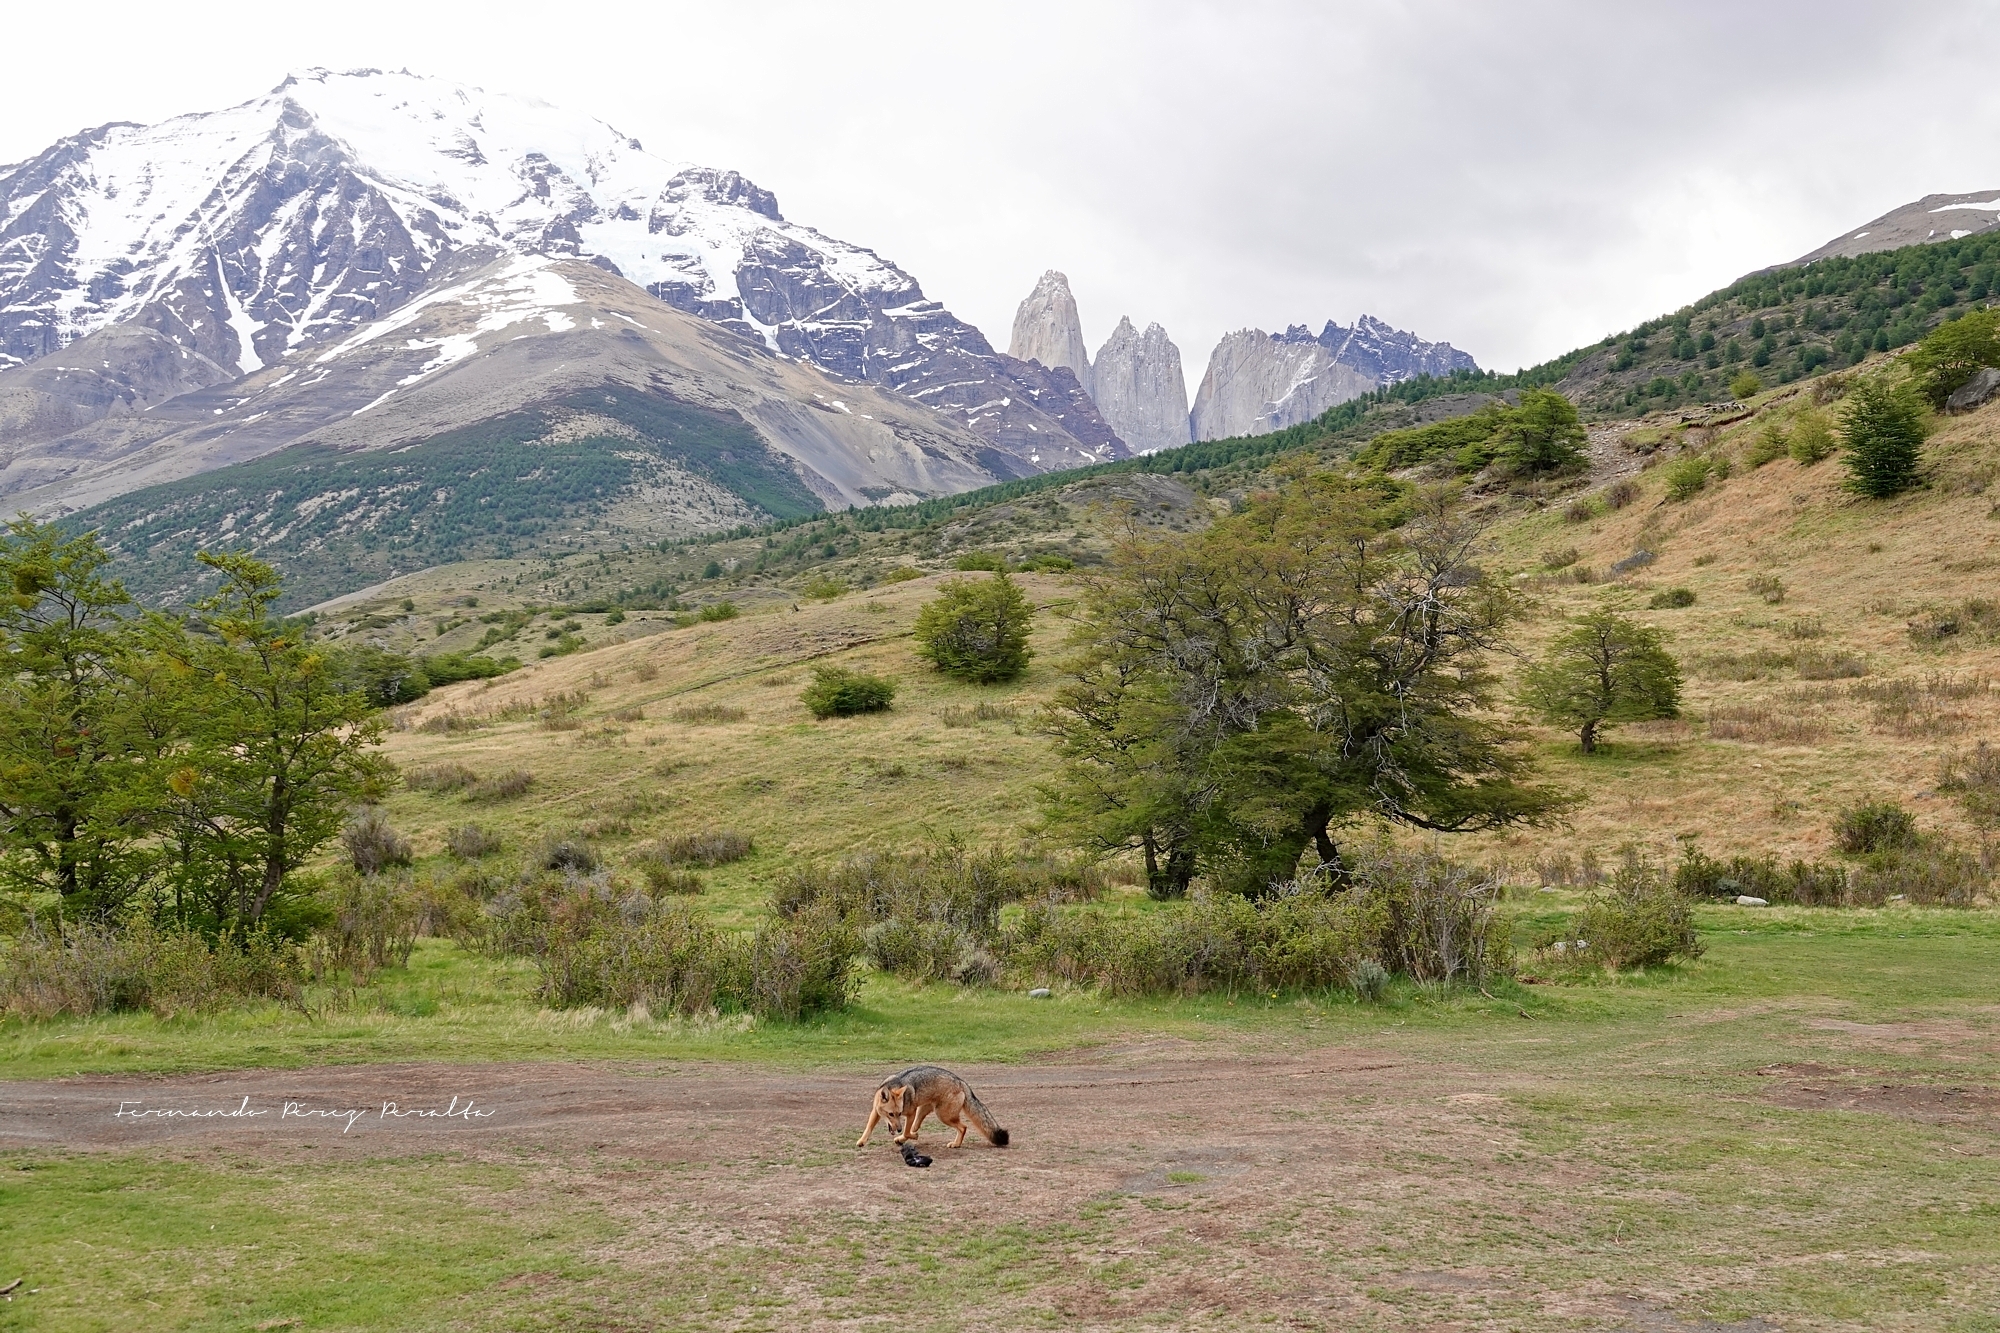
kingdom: Animalia
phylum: Chordata
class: Mammalia
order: Carnivora
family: Canidae
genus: Lycalopex
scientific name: Lycalopex culpaeus
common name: Culpeo
